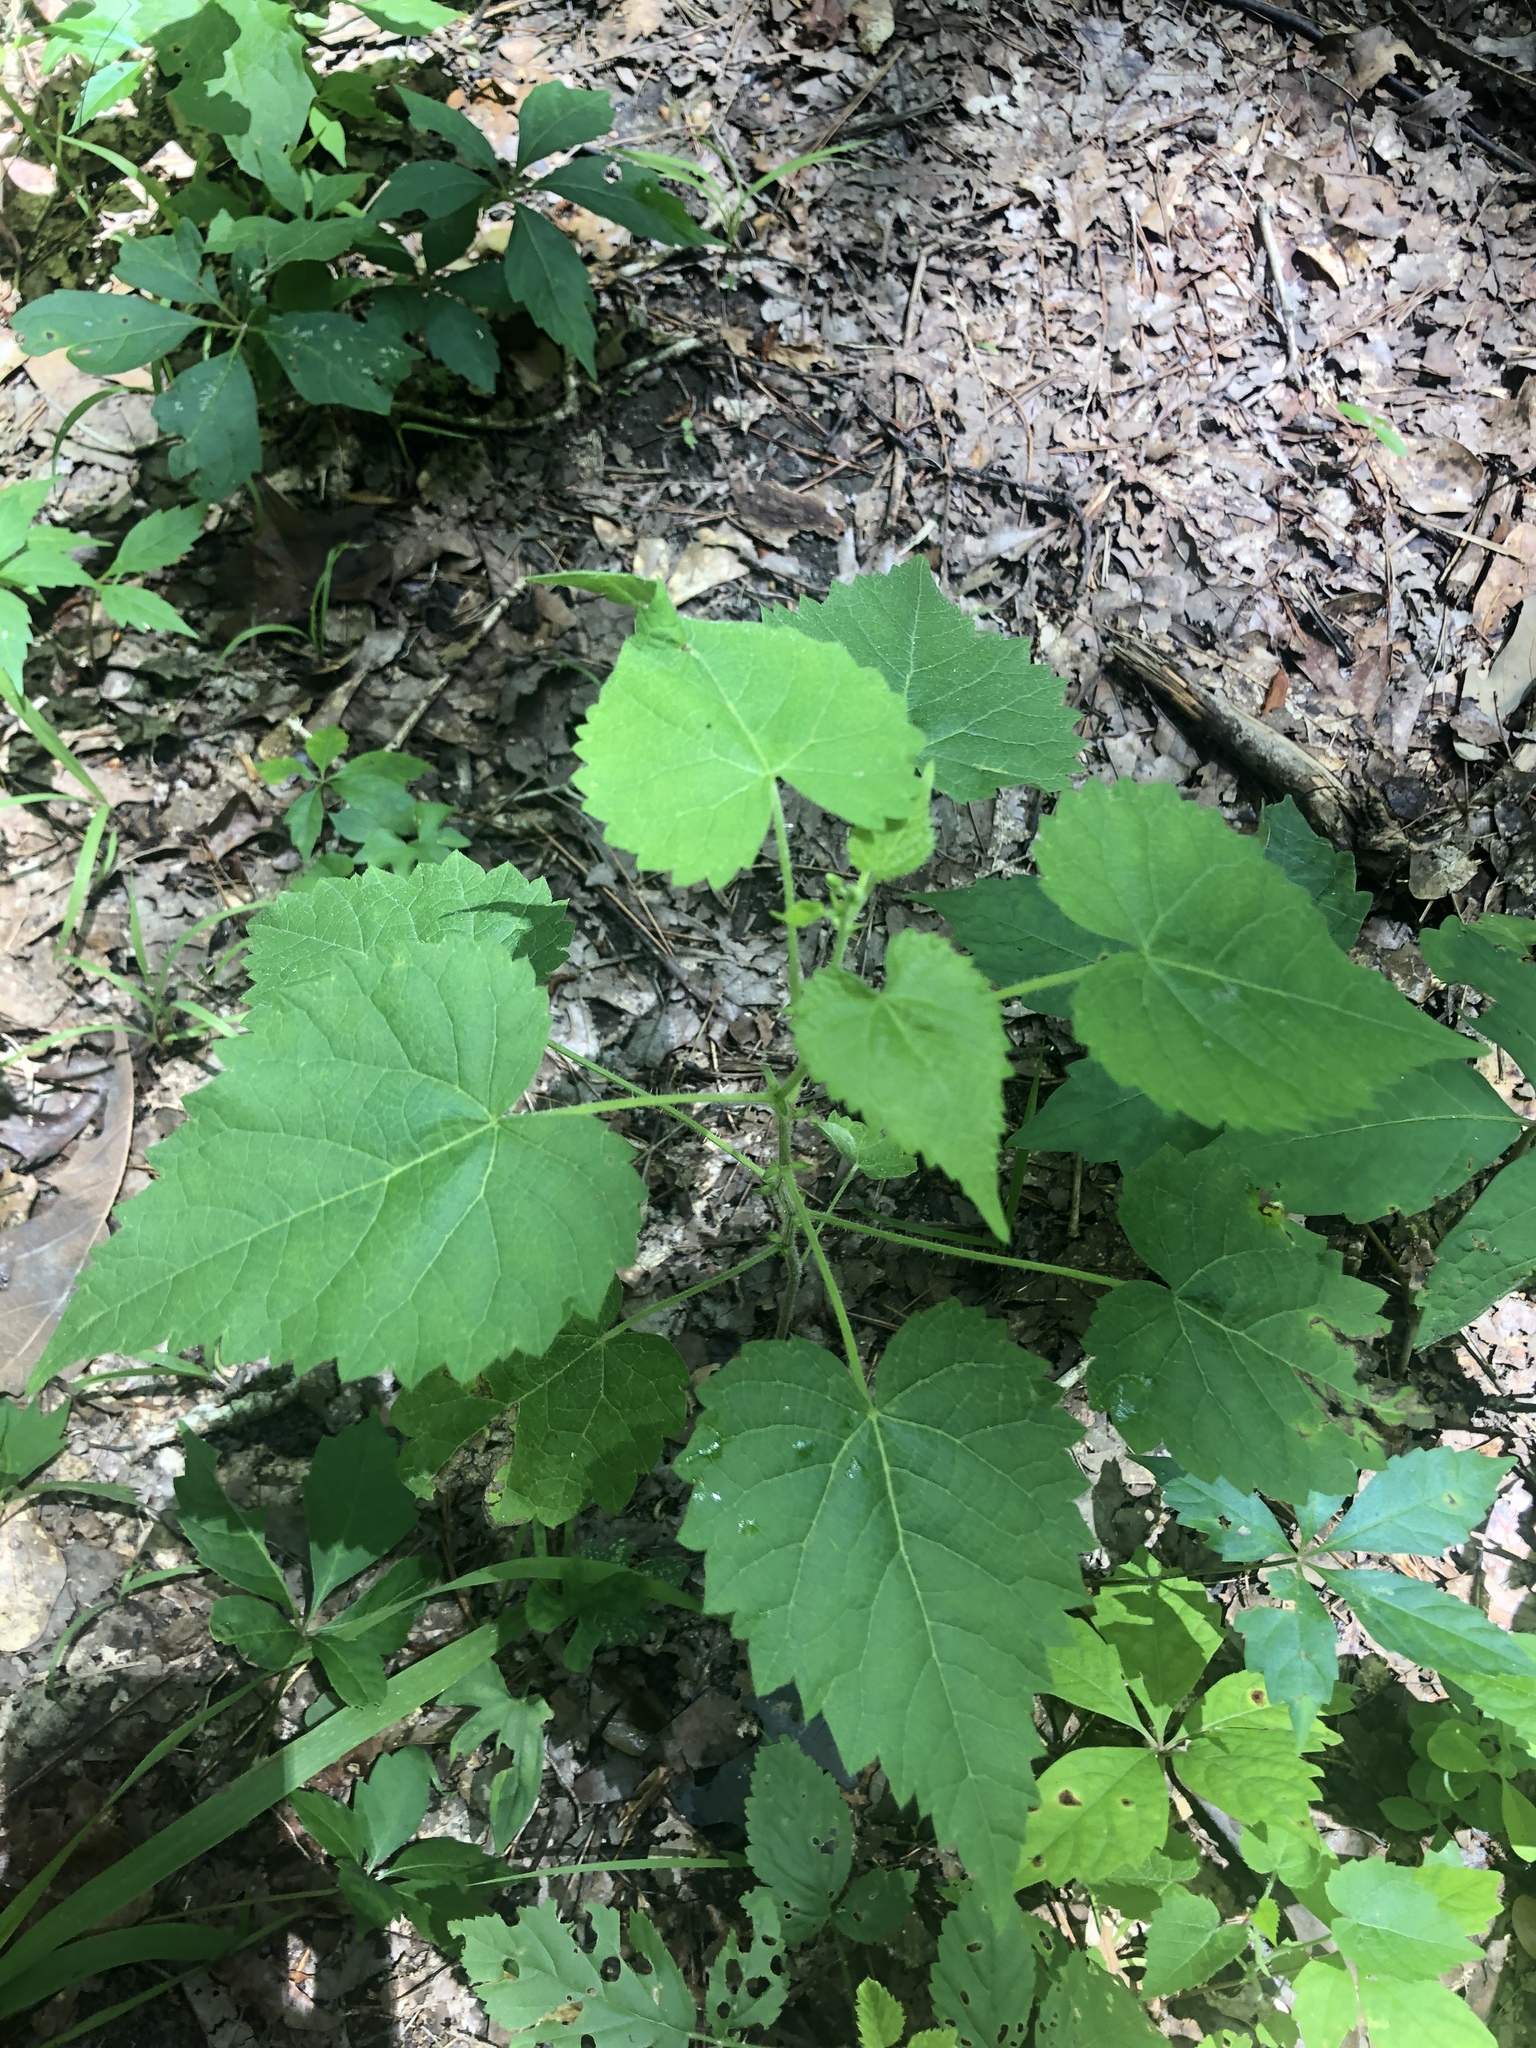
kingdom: Plantae
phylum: Tracheophyta
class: Magnoliopsida
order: Malpighiales
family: Euphorbiaceae
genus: Tragia
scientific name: Tragia cordata
